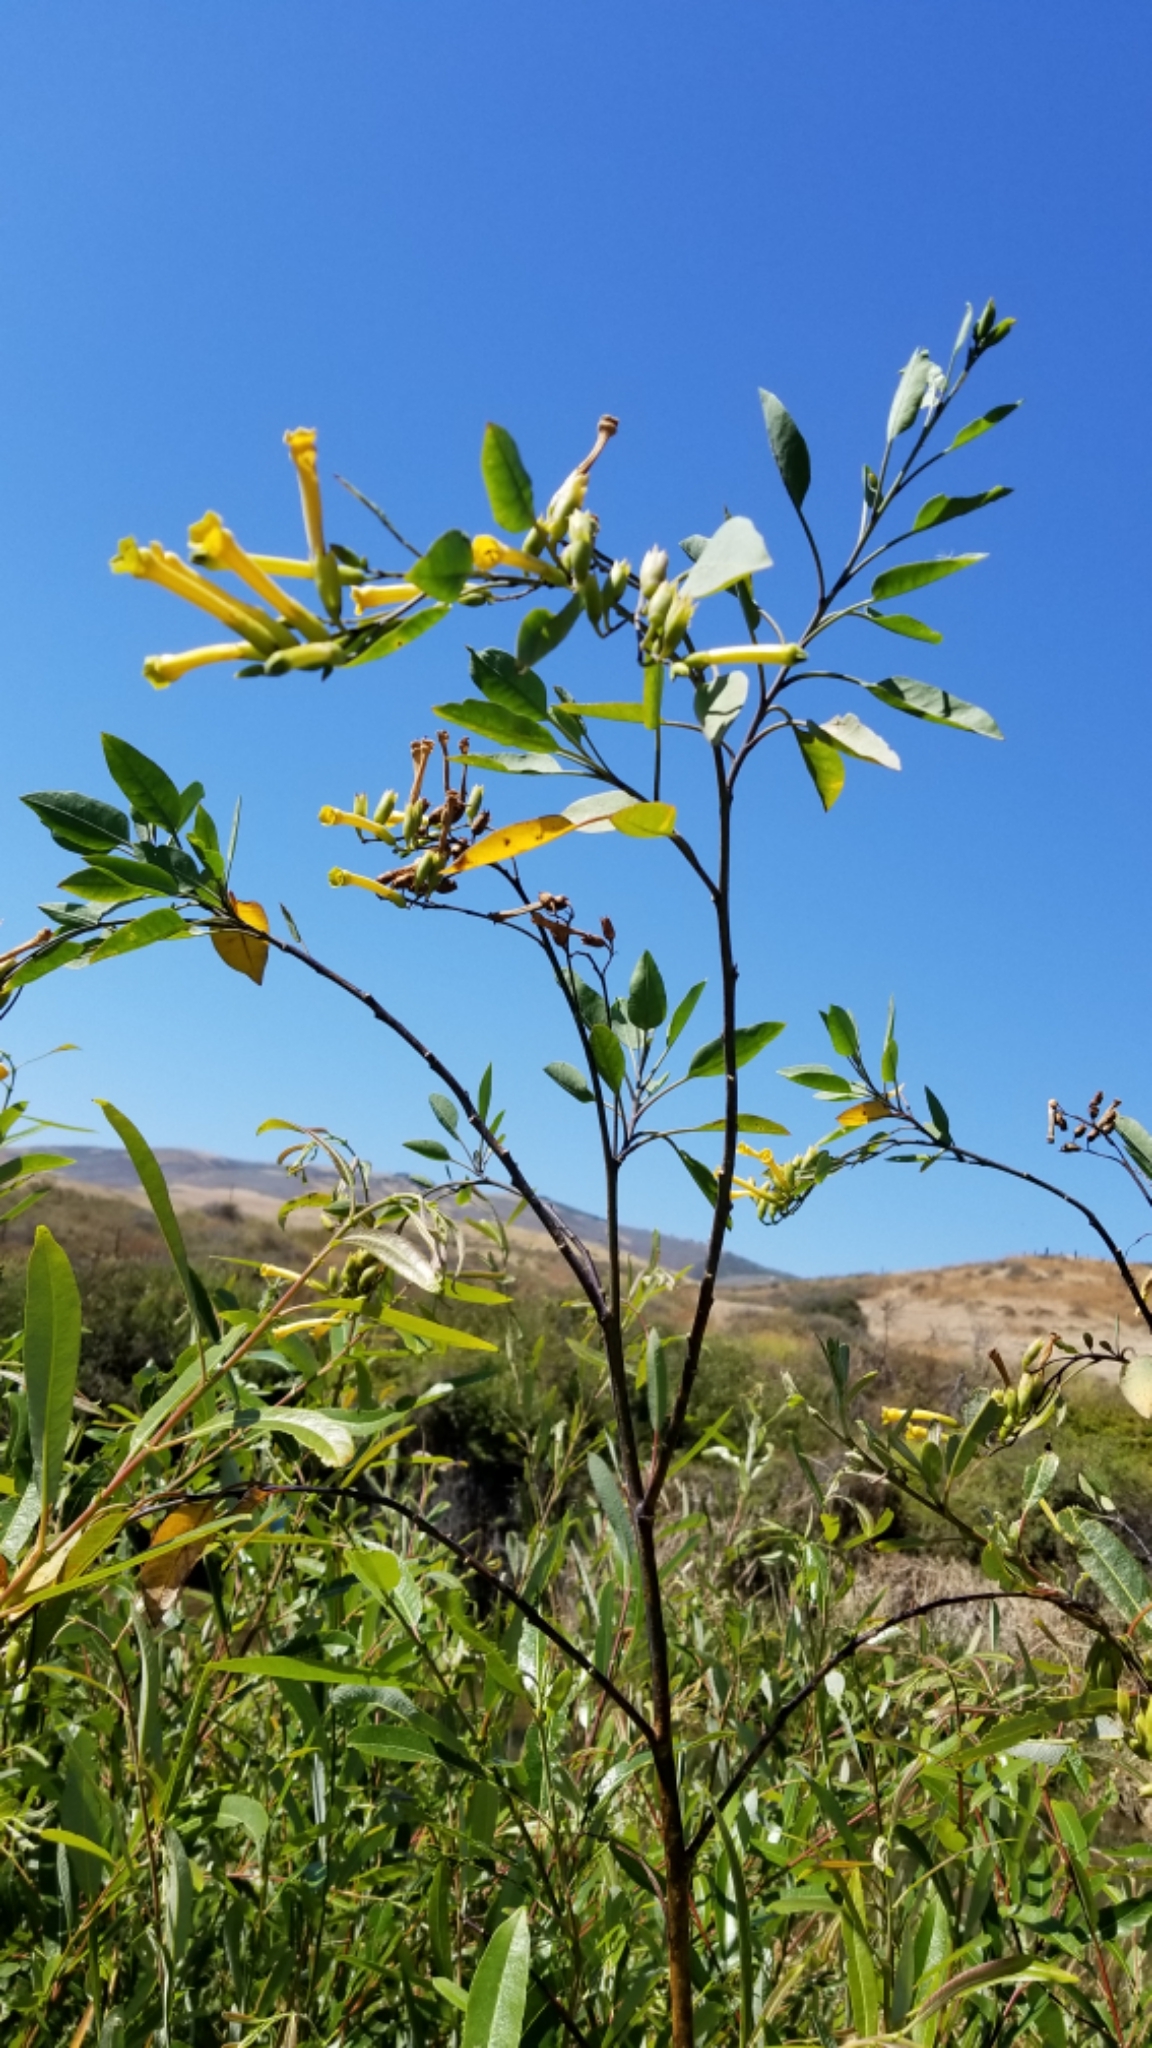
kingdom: Plantae
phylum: Tracheophyta
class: Magnoliopsida
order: Solanales
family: Solanaceae
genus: Nicotiana
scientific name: Nicotiana glauca
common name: Tree tobacco
